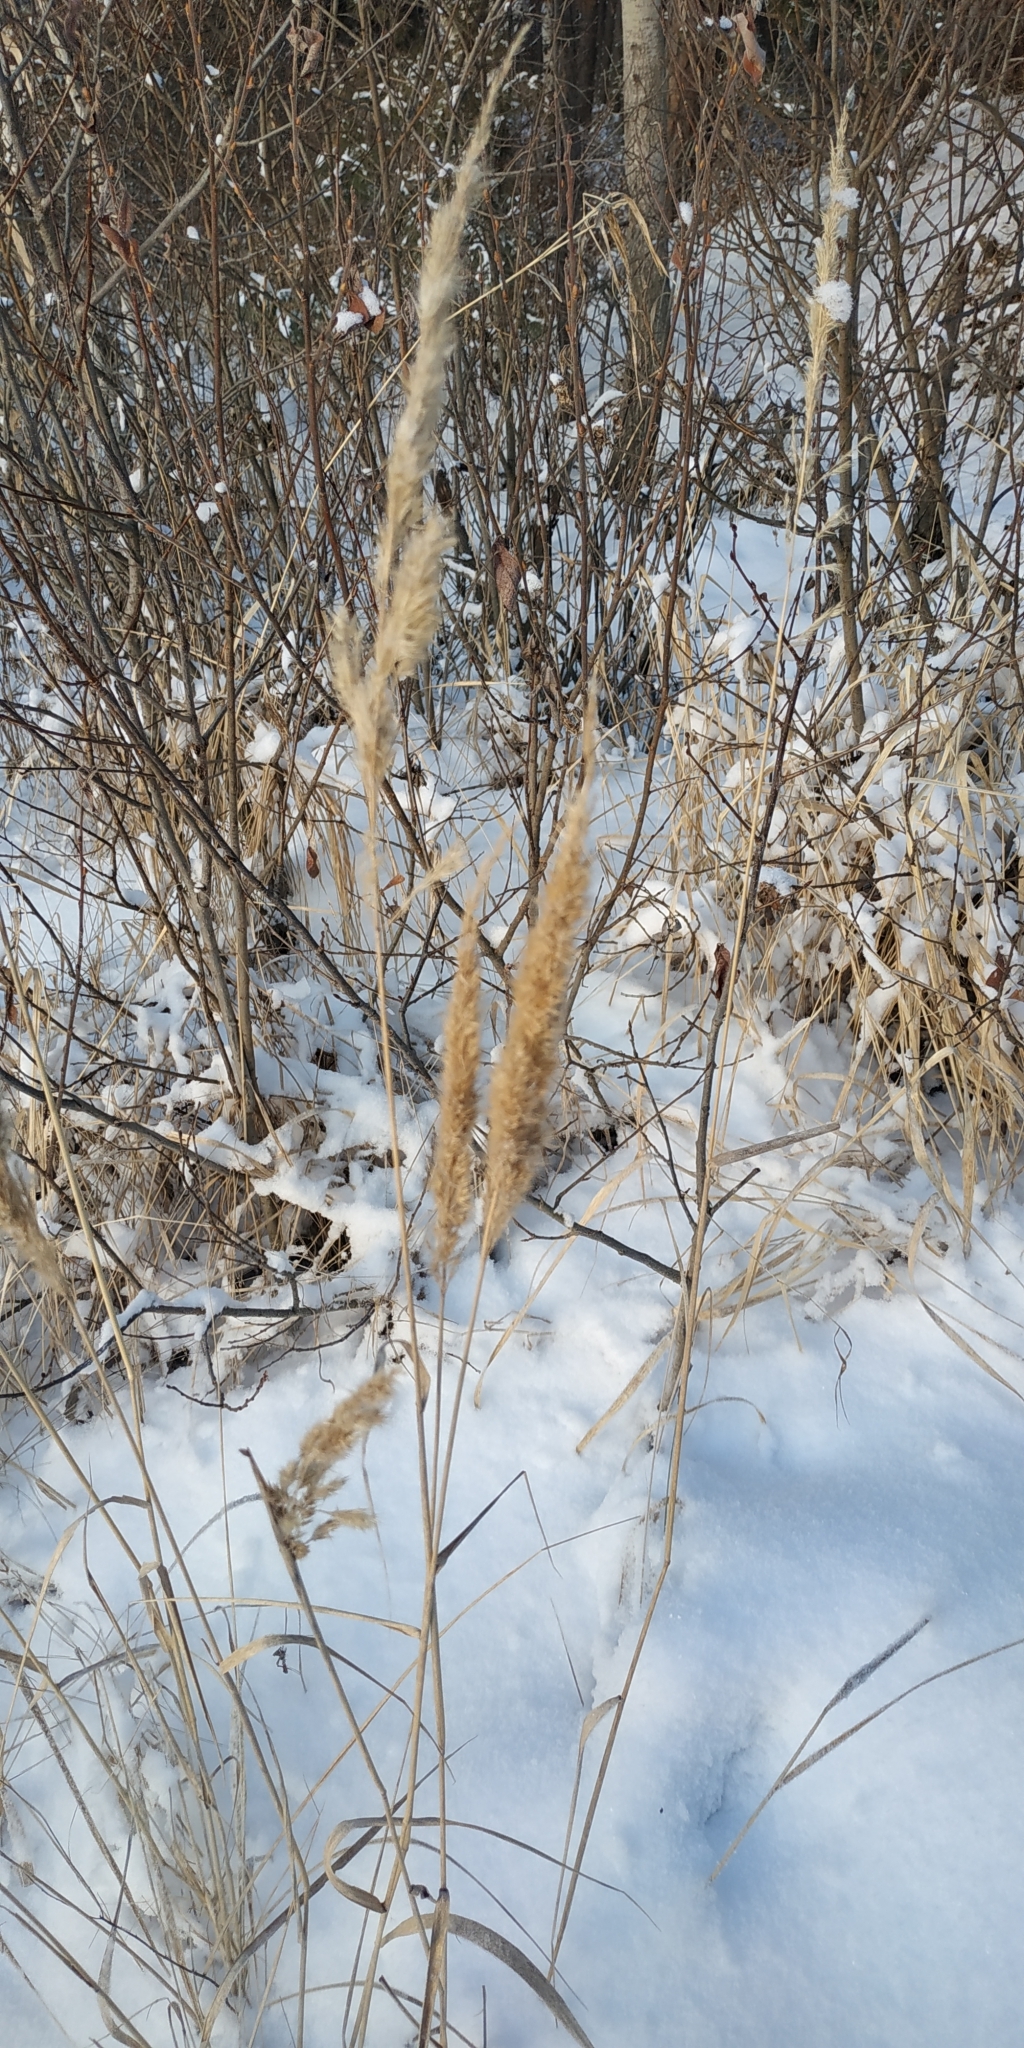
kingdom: Plantae
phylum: Tracheophyta
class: Liliopsida
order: Poales
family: Poaceae
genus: Calamagrostis
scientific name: Calamagrostis epigejos
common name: Wood small-reed
